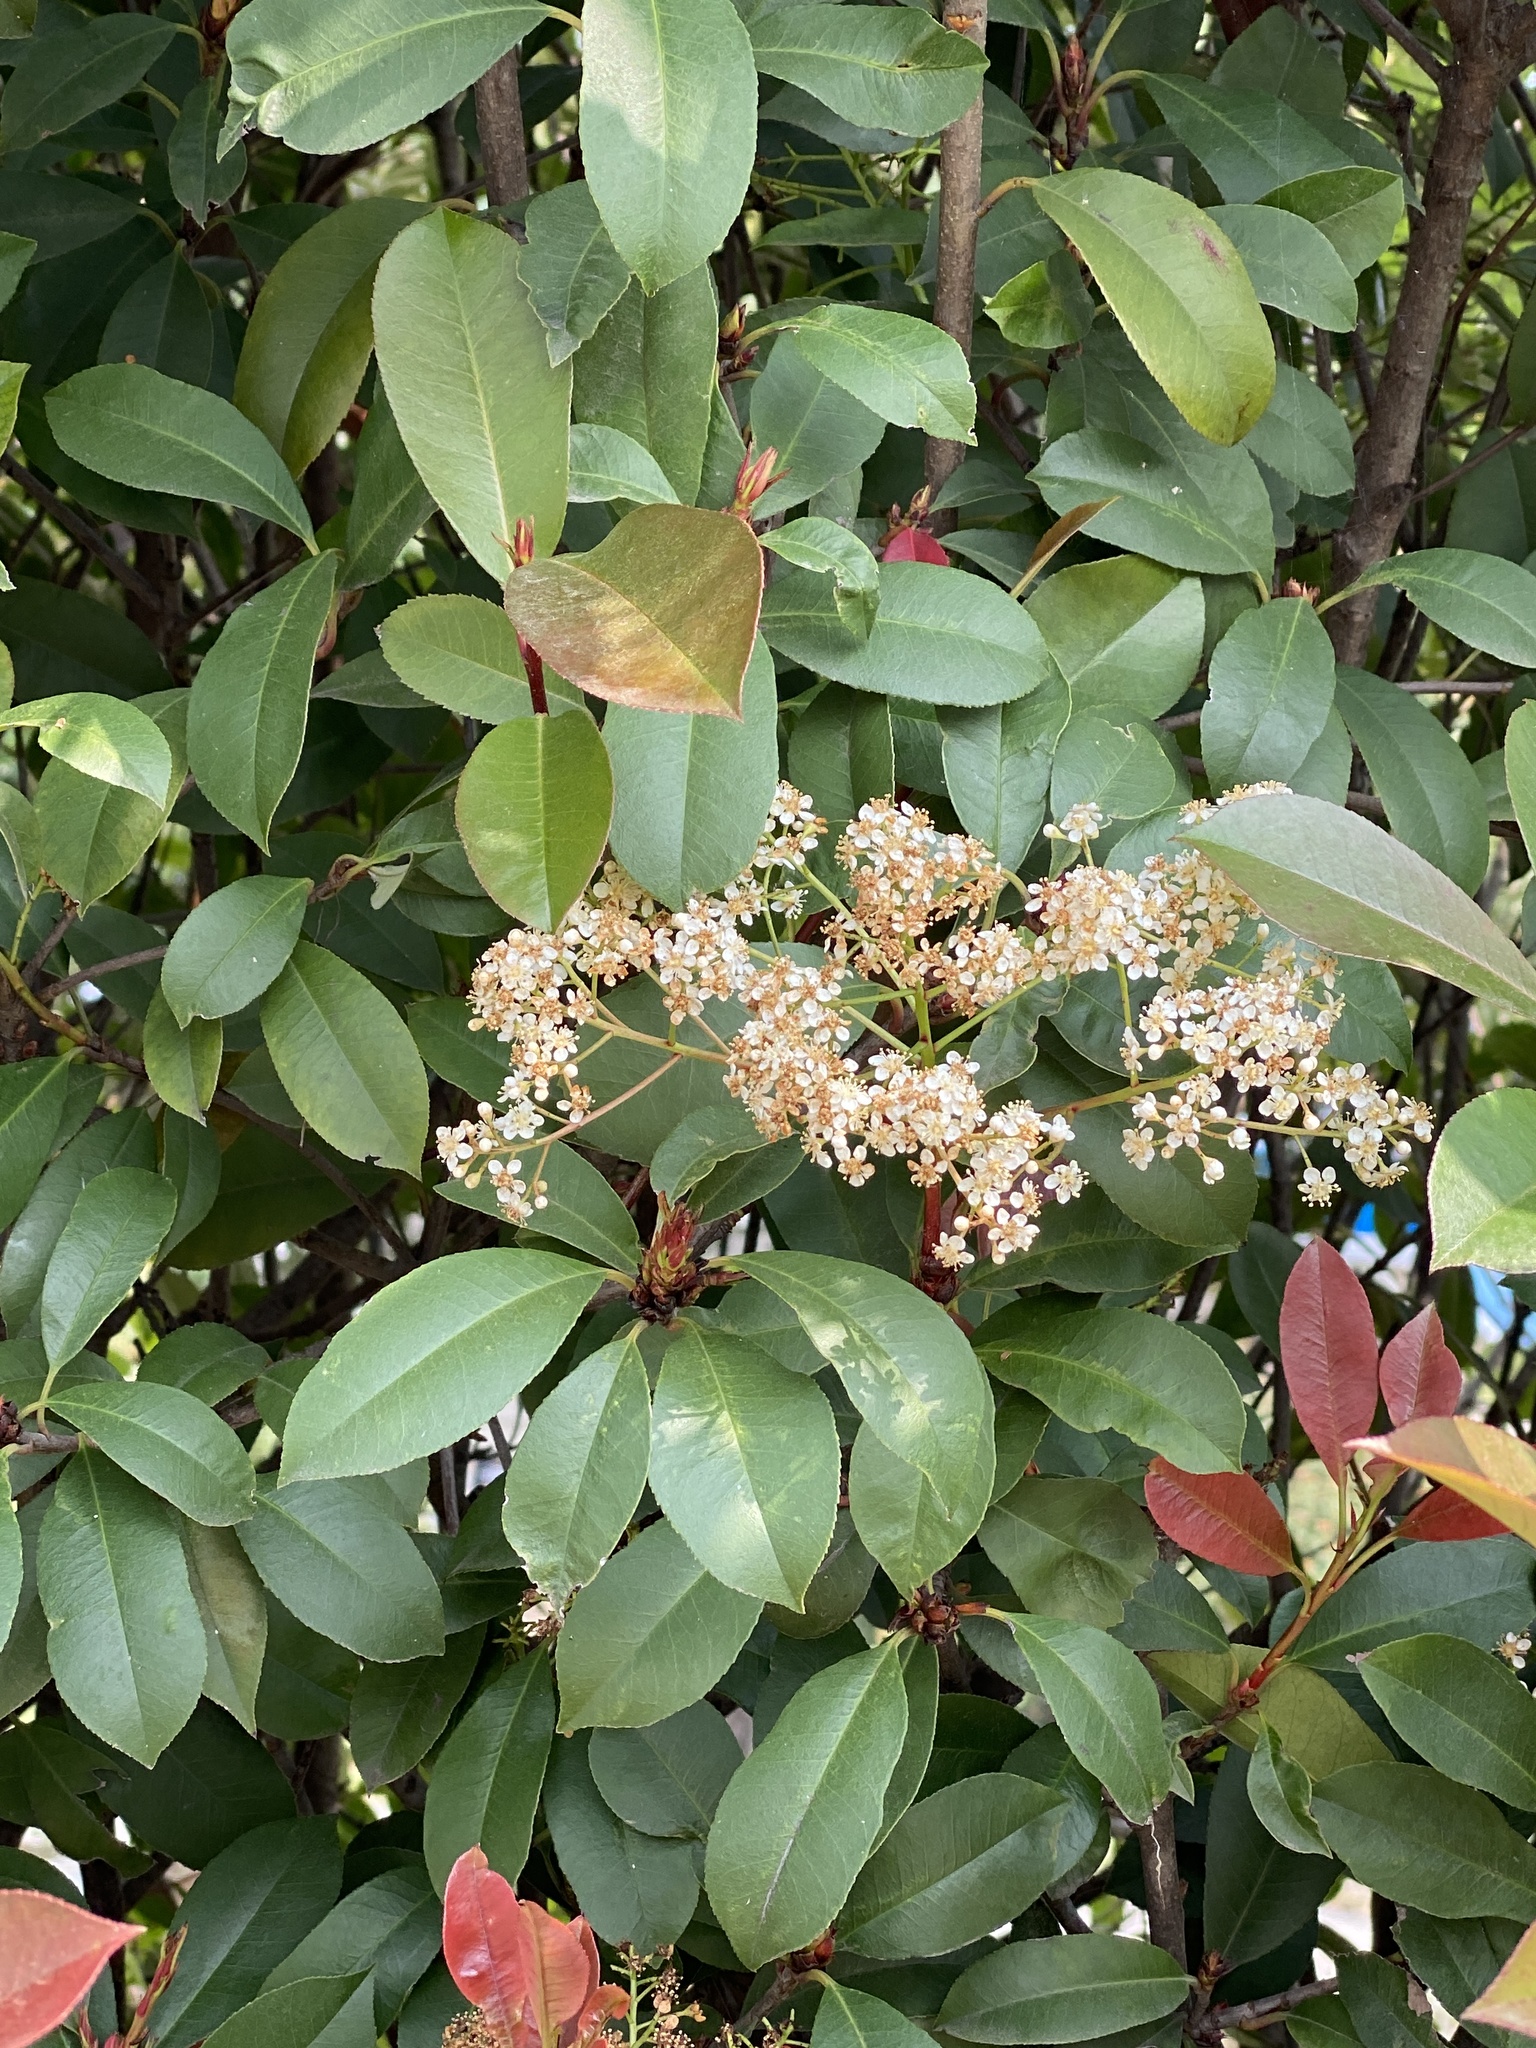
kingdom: Plantae
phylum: Tracheophyta
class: Magnoliopsida
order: Rosales
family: Rosaceae
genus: Photinia
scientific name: Photinia fraseri
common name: Fraser's photinia
